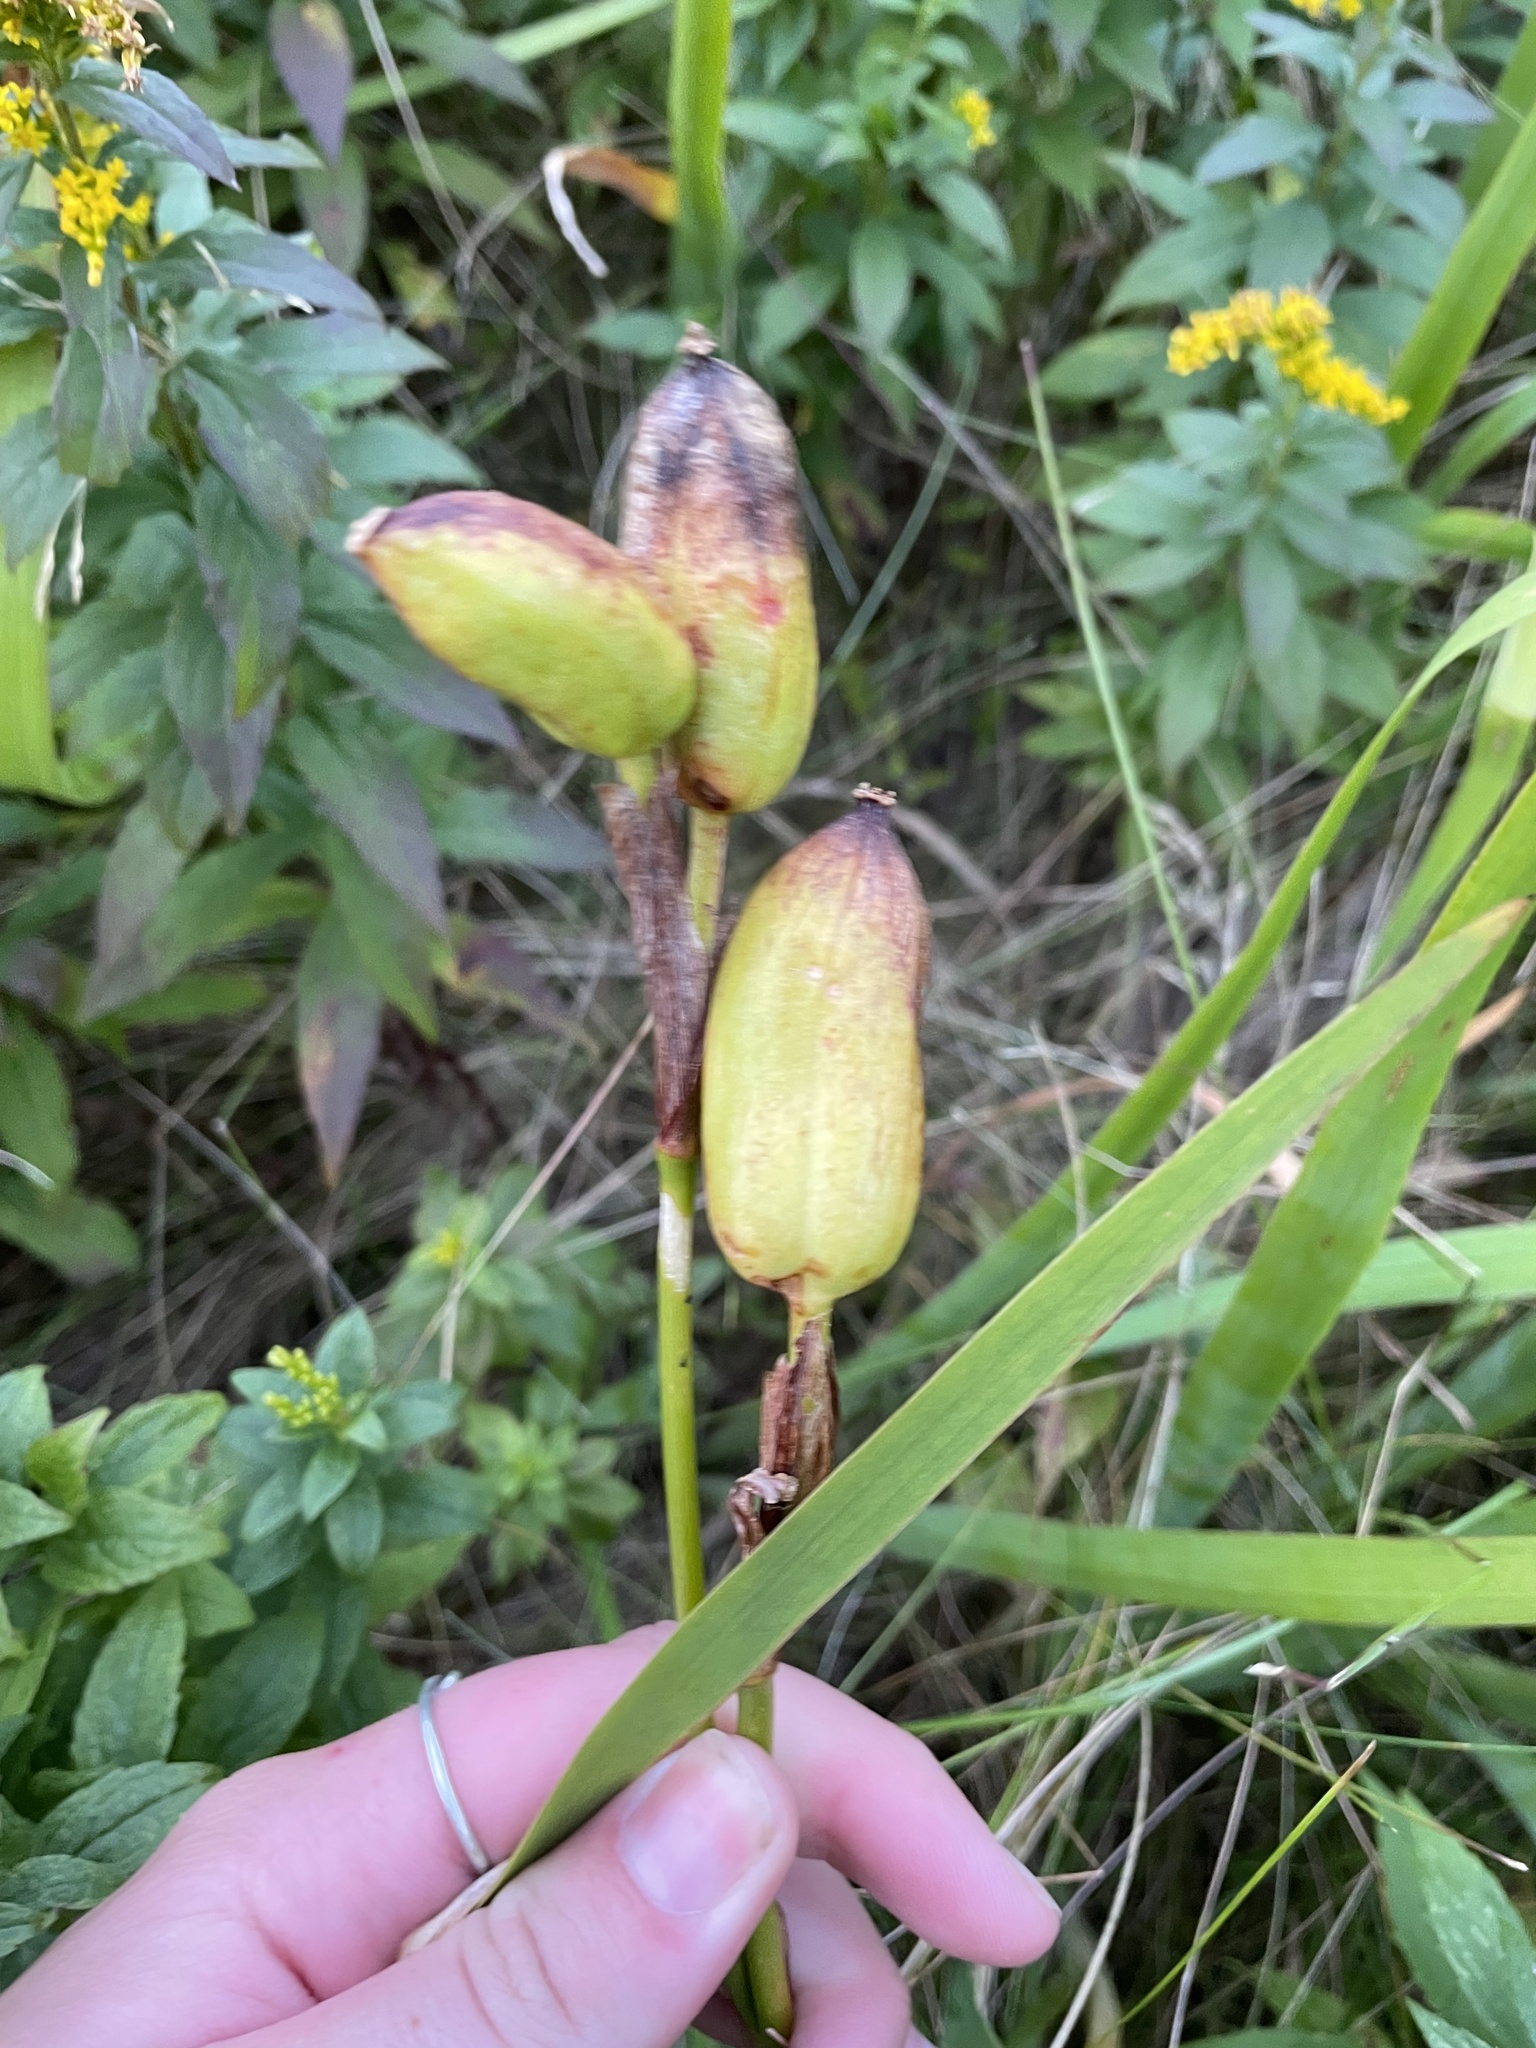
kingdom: Plantae
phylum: Tracheophyta
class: Liliopsida
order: Asparagales
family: Iridaceae
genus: Iris
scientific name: Iris versicolor
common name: Purple iris
